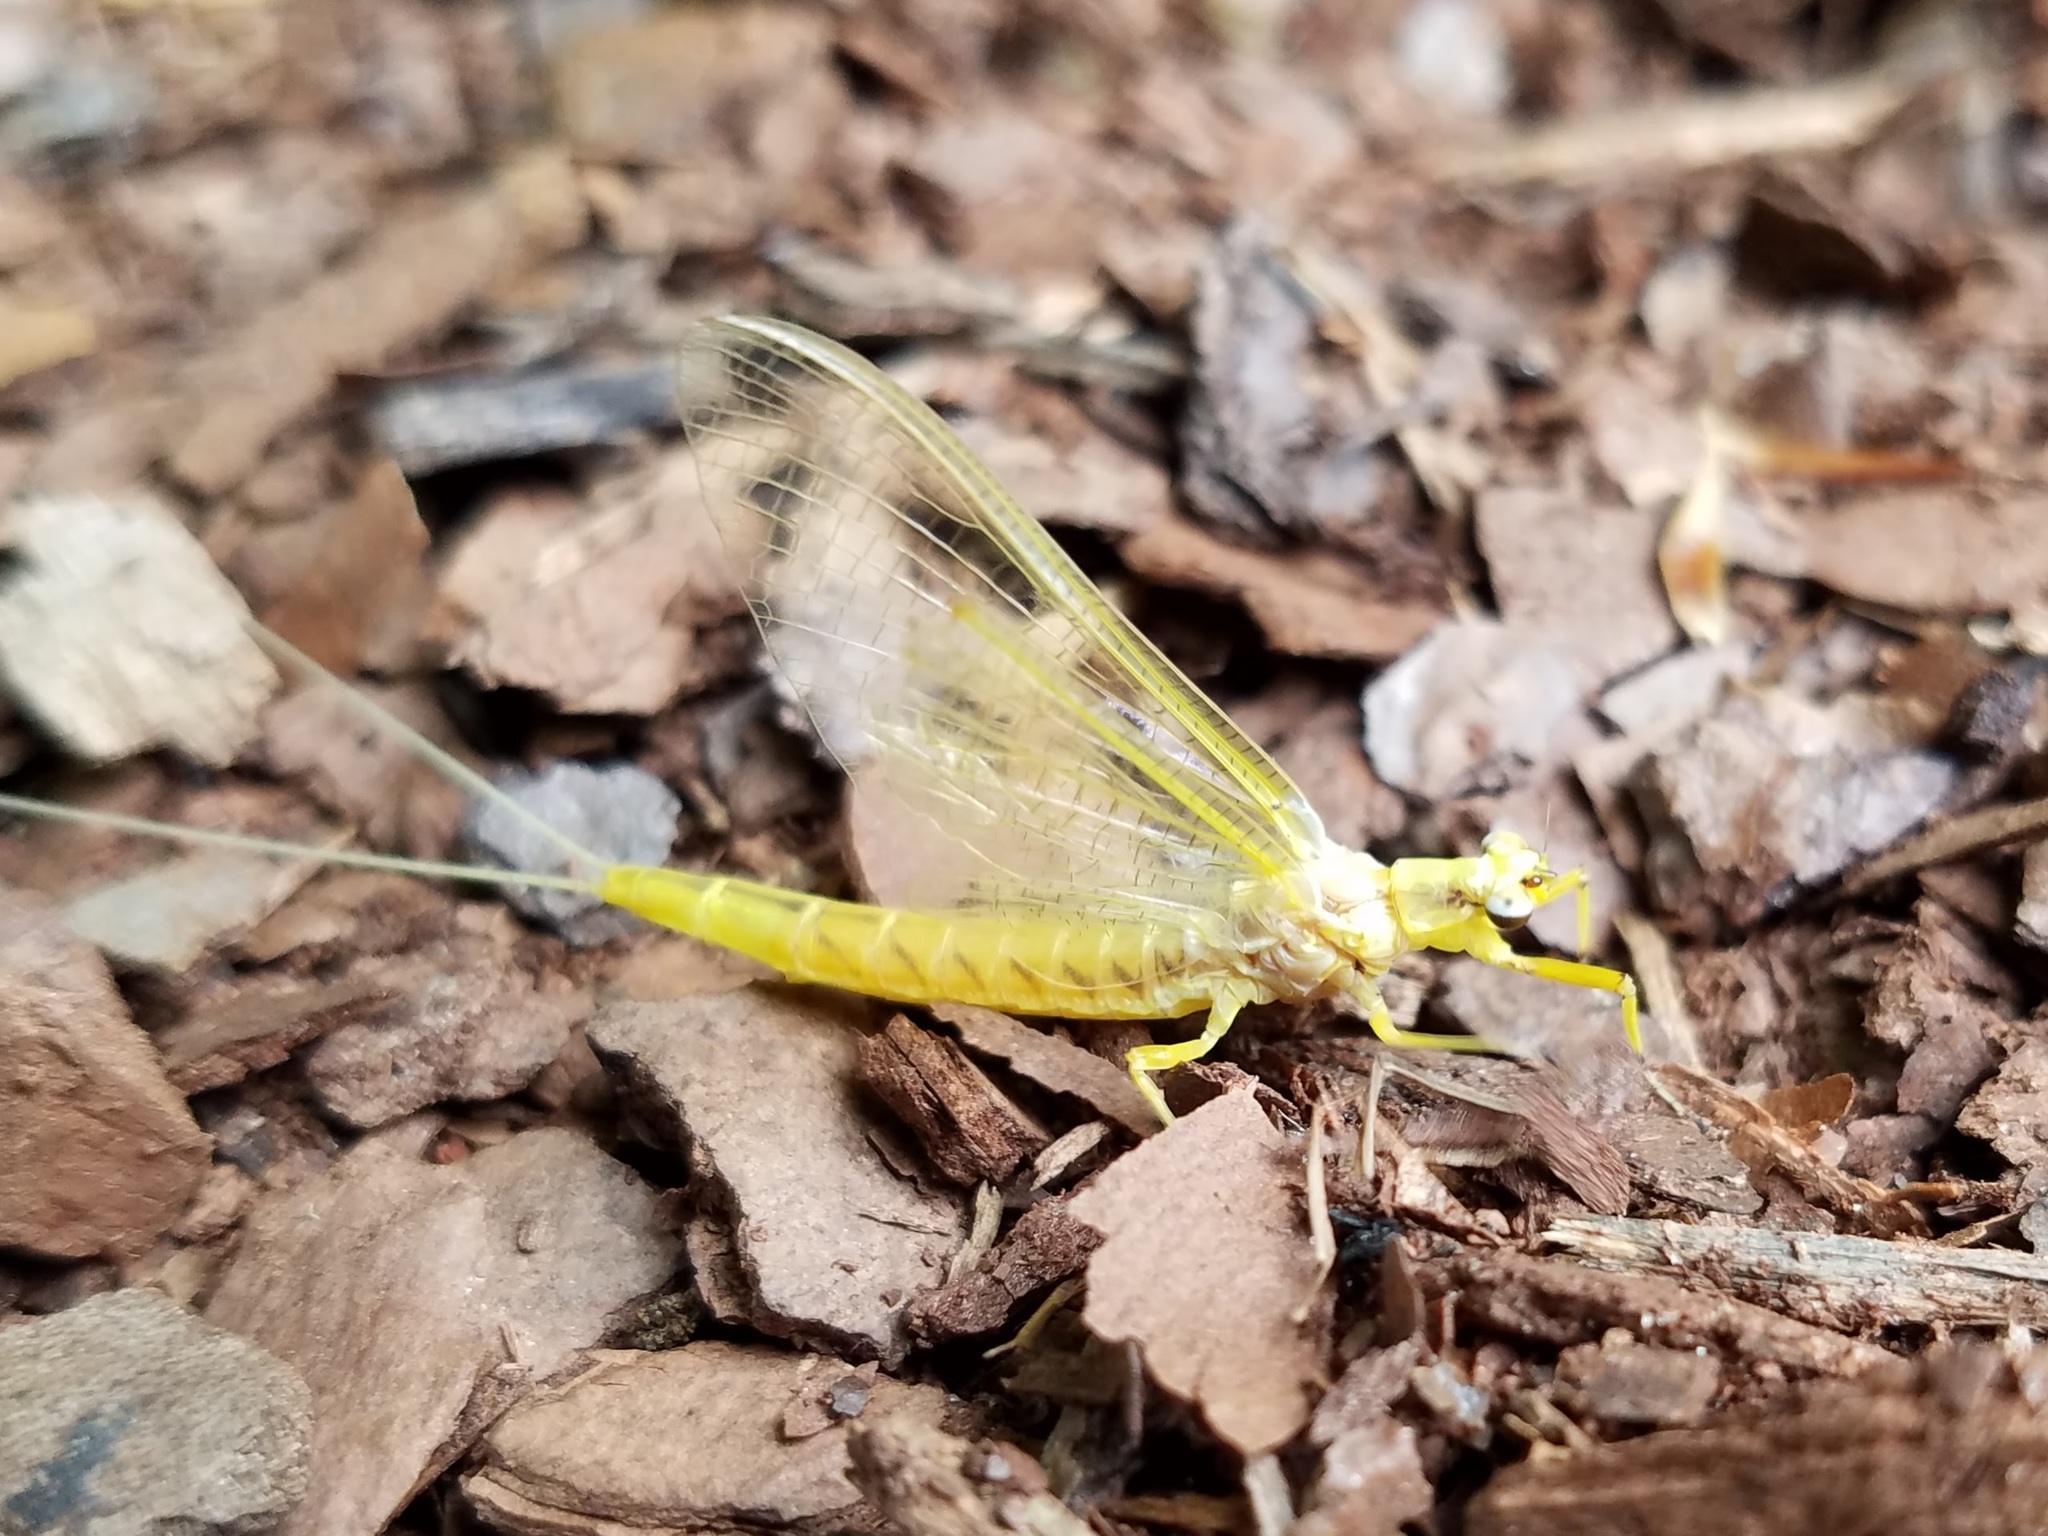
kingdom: Animalia
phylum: Arthropoda
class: Insecta
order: Ephemeroptera
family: Ephemeridae
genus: Hexagenia
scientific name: Hexagenia limbata
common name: Giant mayfly
